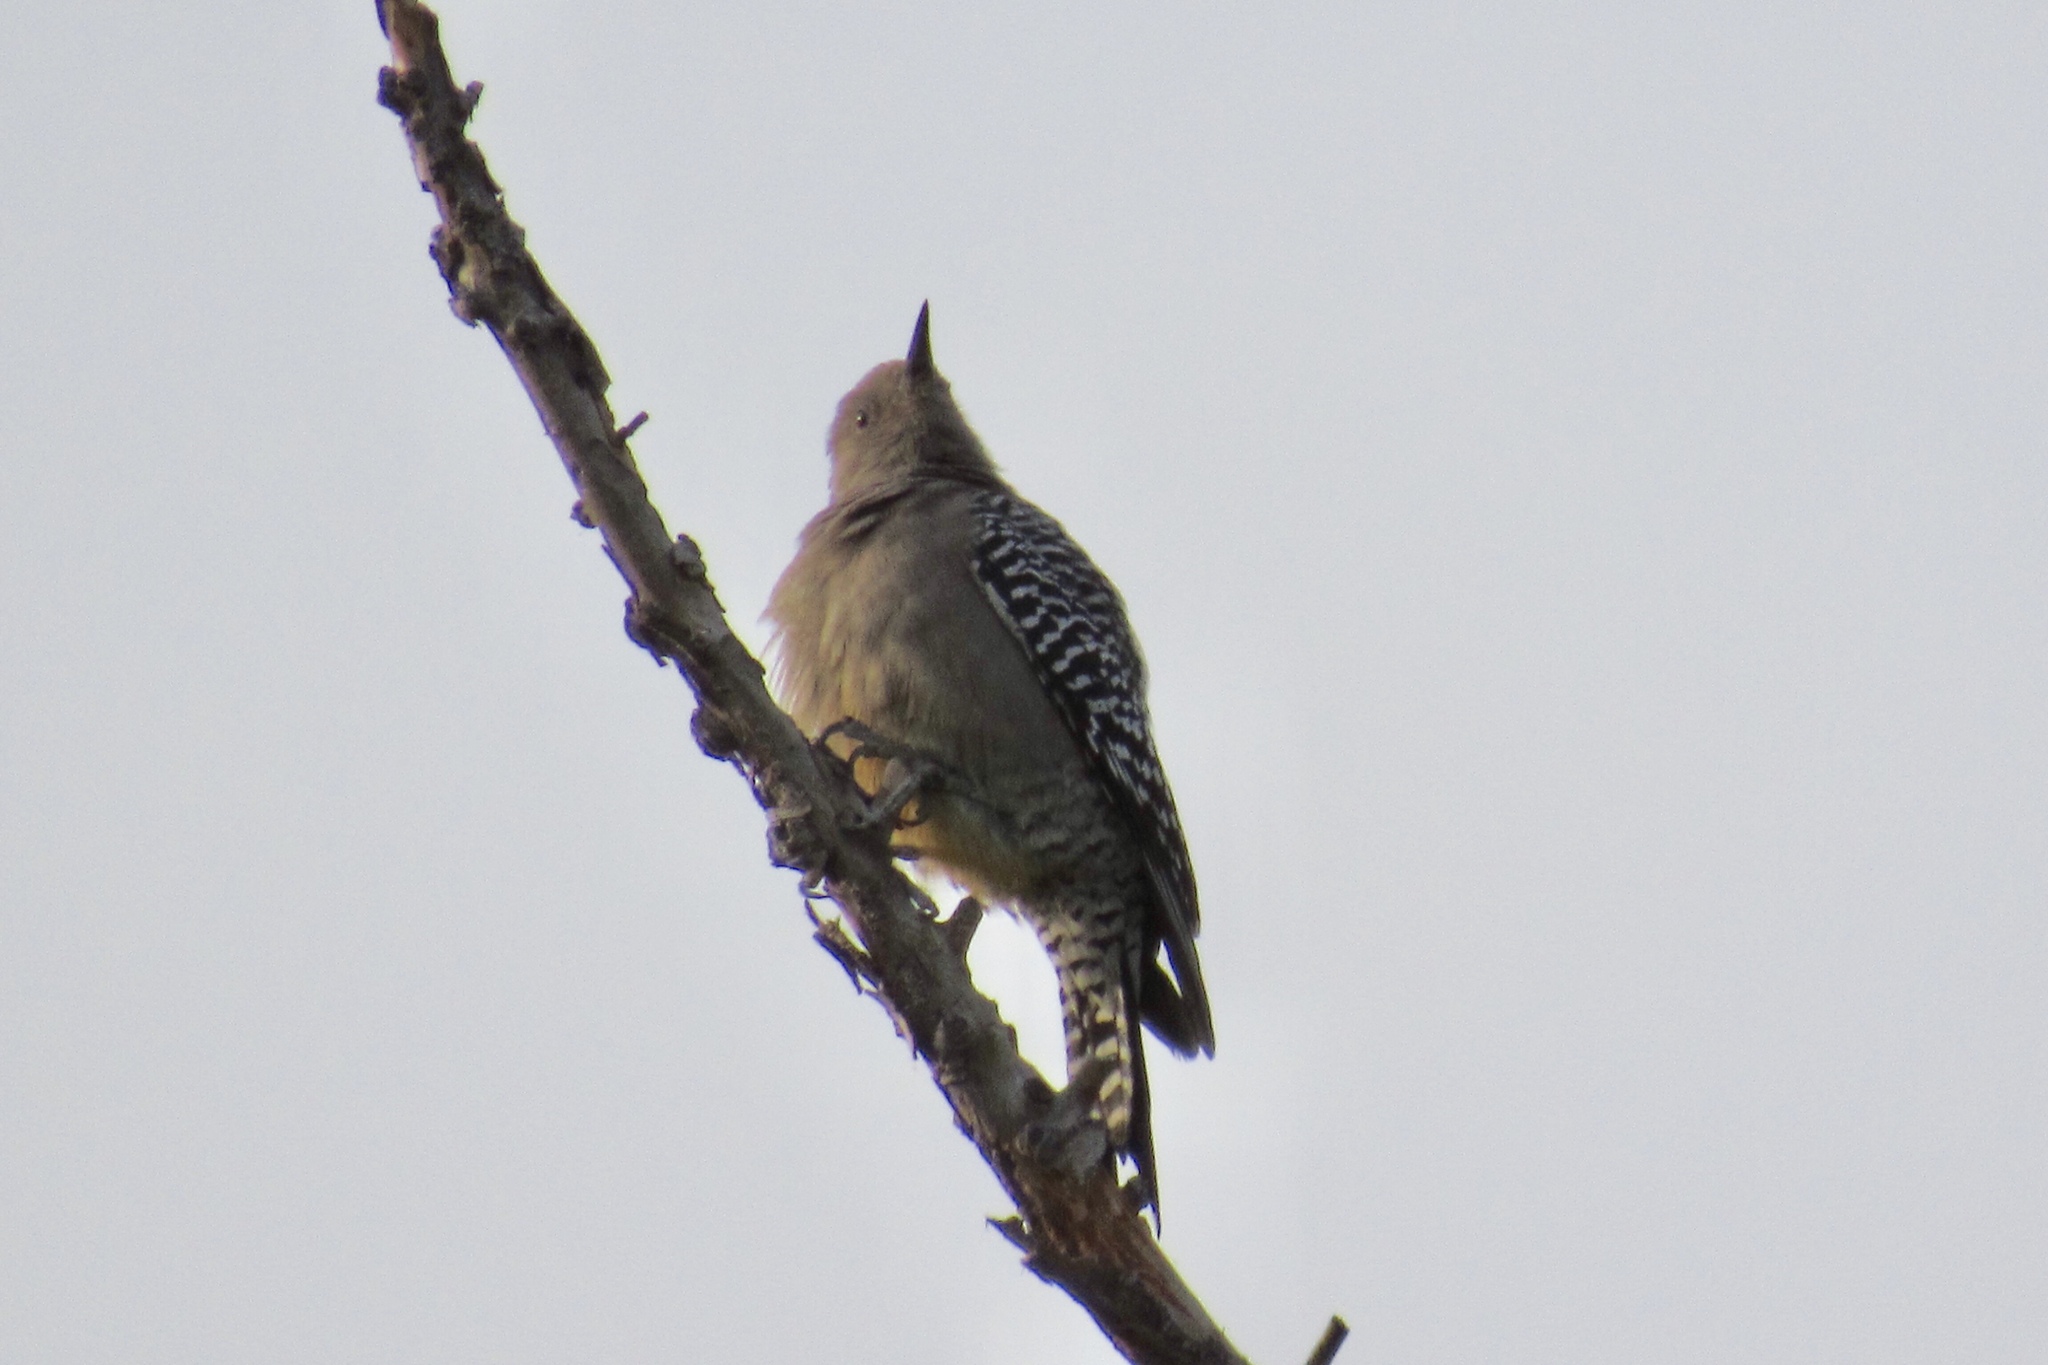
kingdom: Animalia
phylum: Chordata
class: Aves
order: Piciformes
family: Picidae
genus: Melanerpes
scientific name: Melanerpes uropygialis
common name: Gila woodpecker
